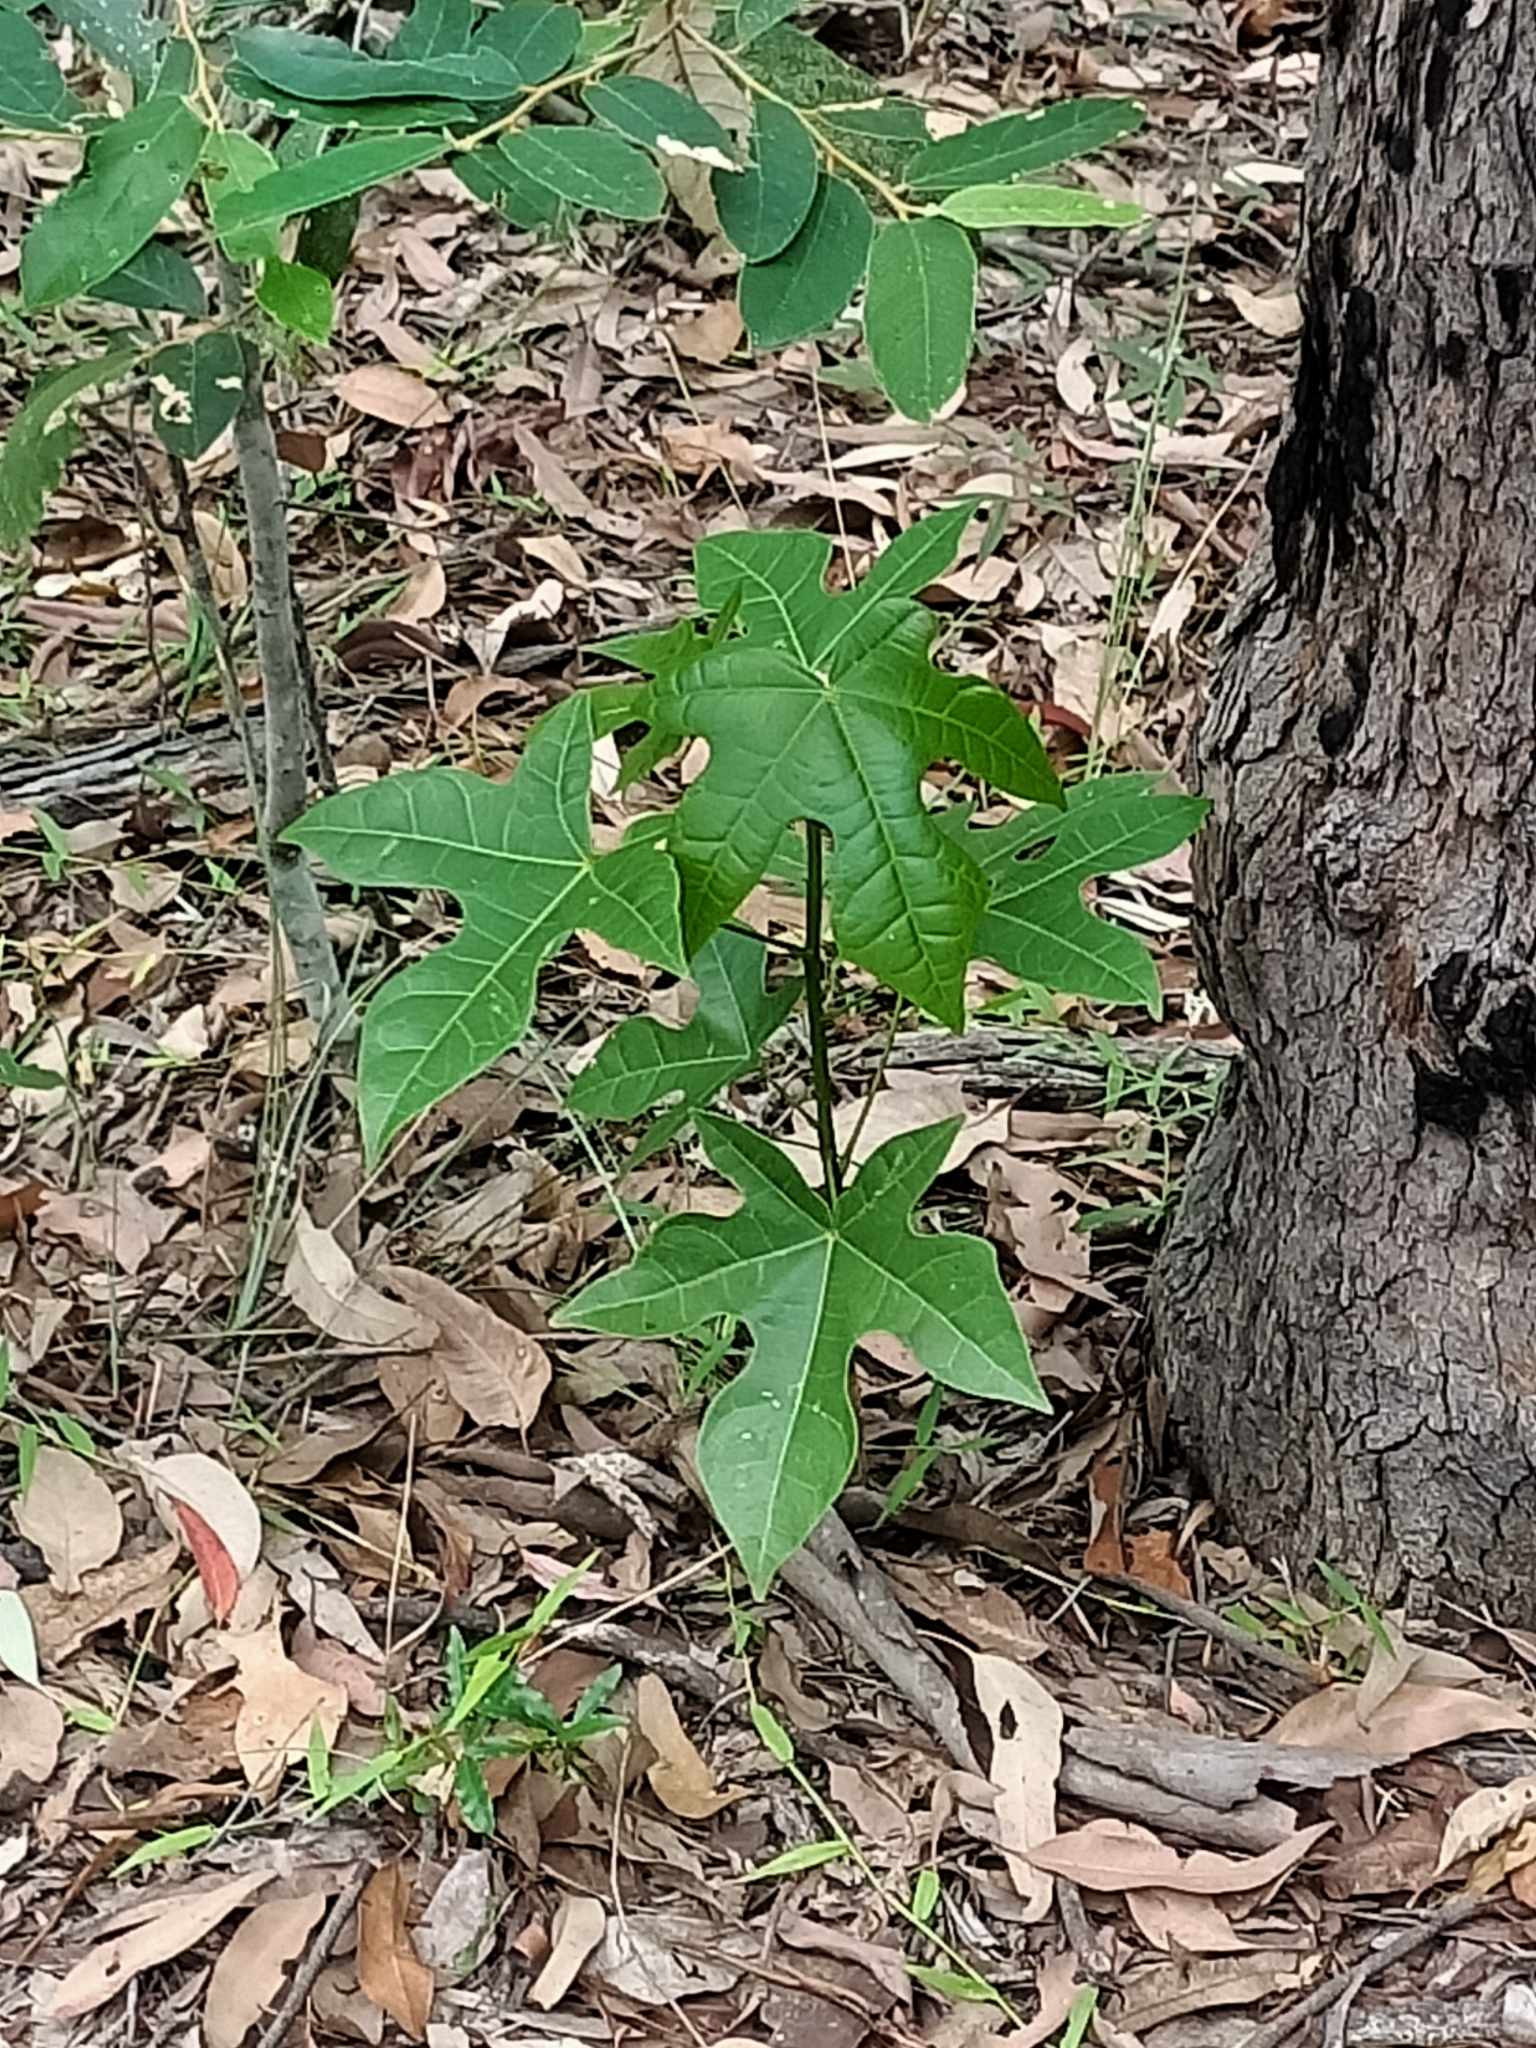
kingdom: Plantae
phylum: Tracheophyta
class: Magnoliopsida
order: Malvales
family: Malvaceae
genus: Brachychiton
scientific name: Brachychiton acerifolius
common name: Illawarra flame tree
